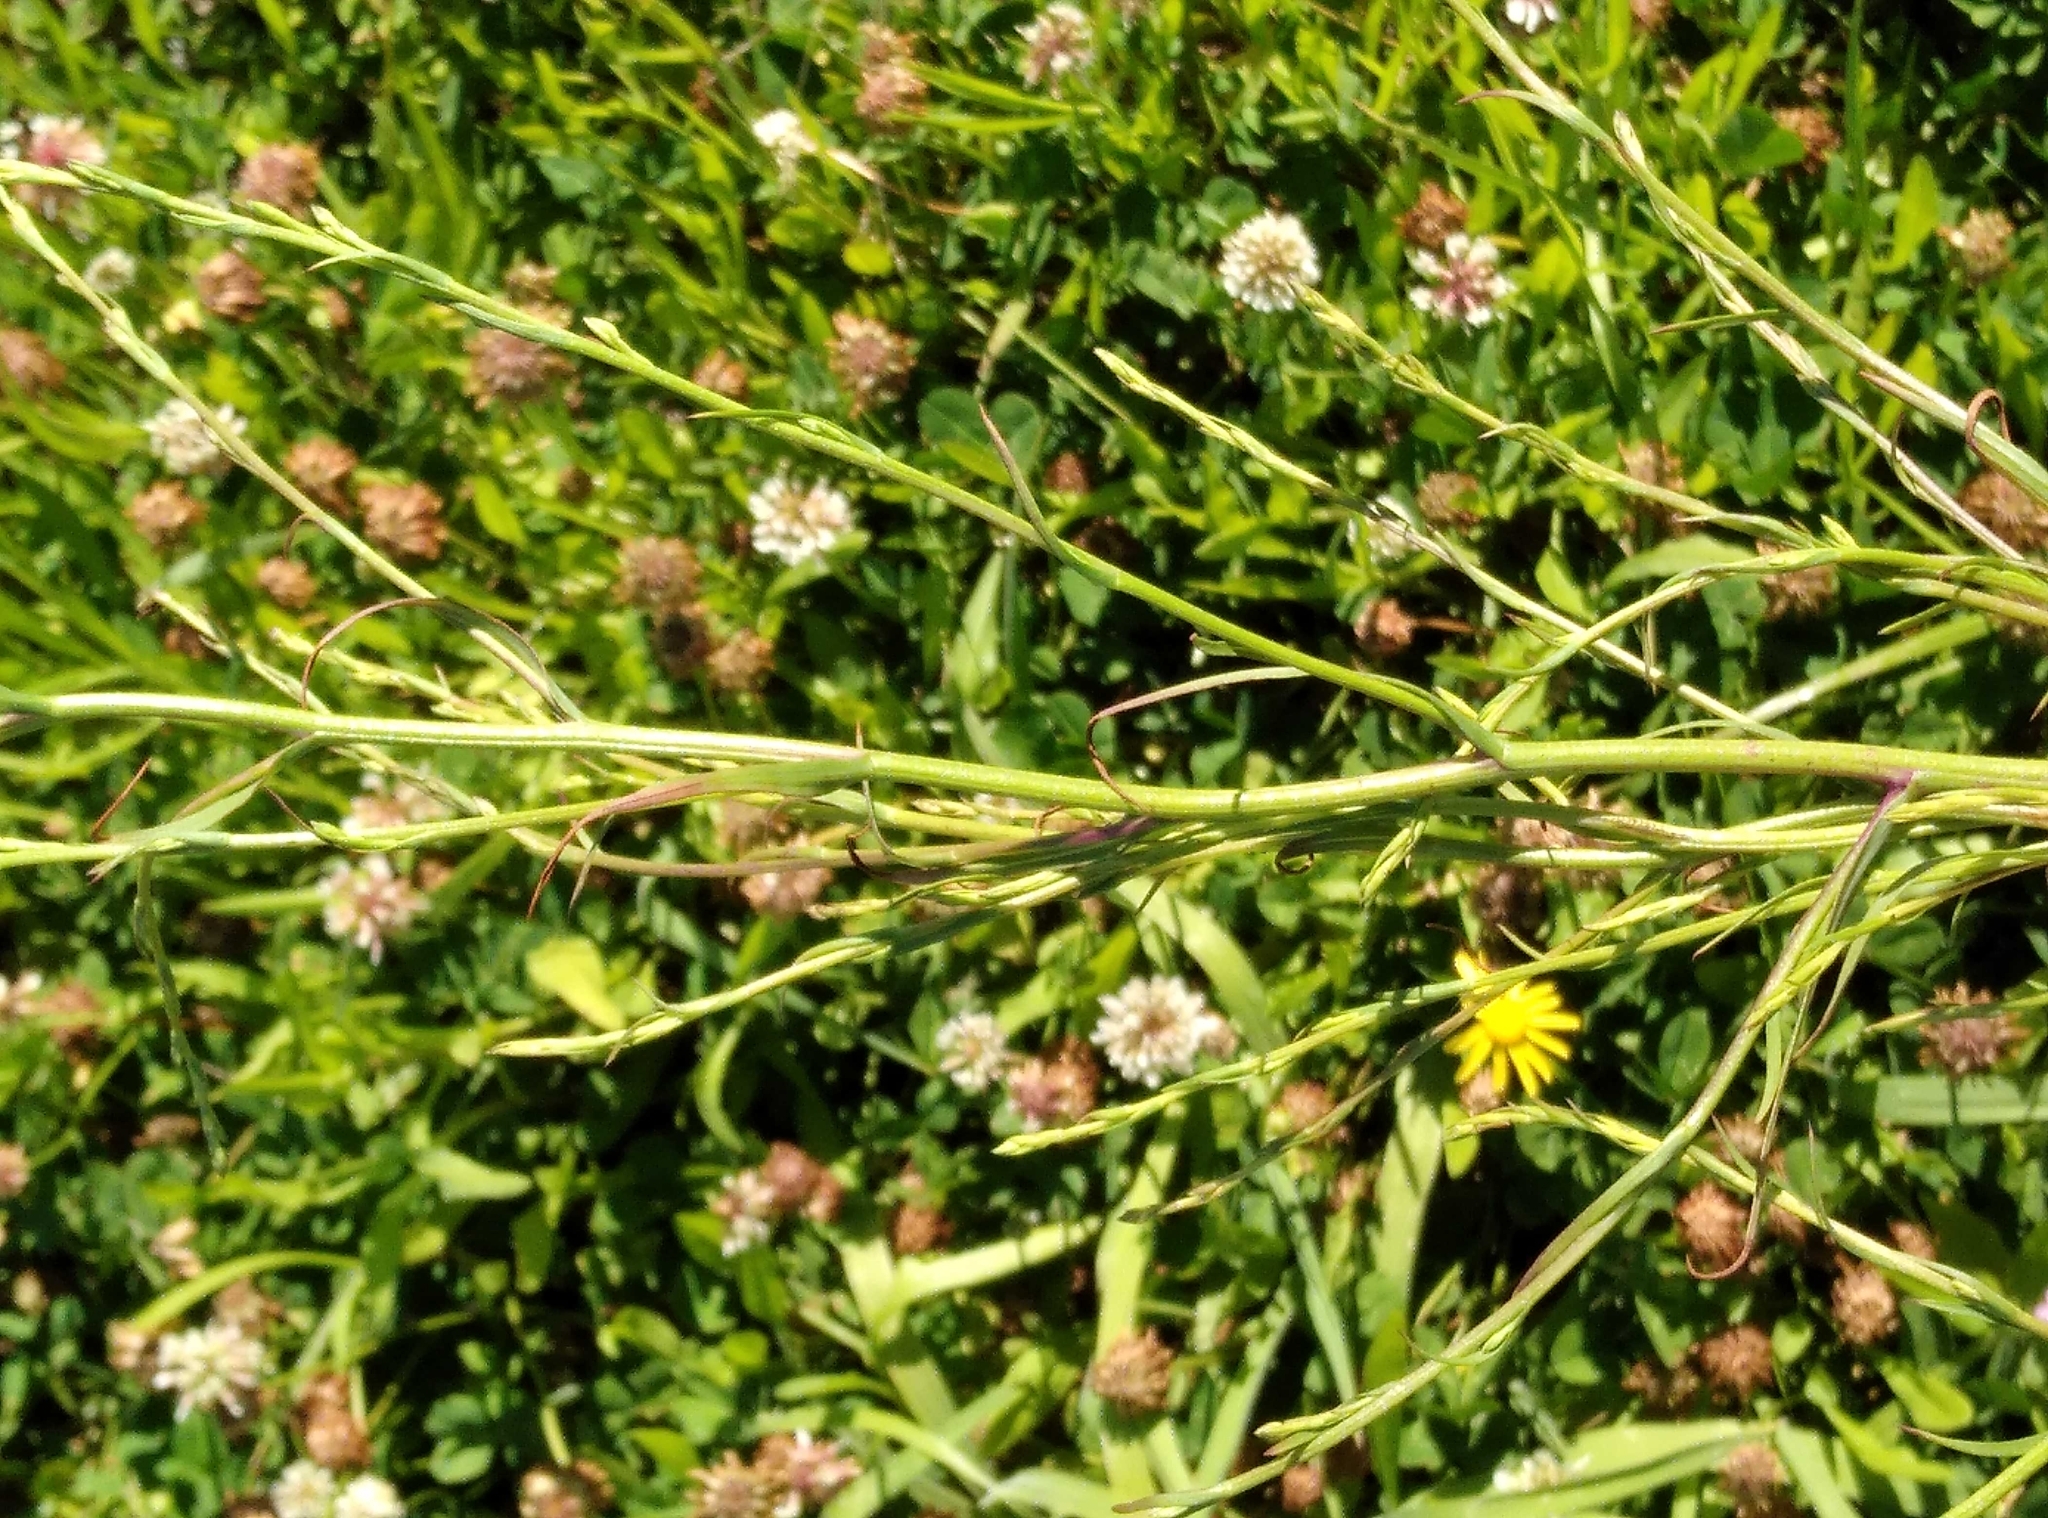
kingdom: Plantae
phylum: Tracheophyta
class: Magnoliopsida
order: Asterales
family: Asteraceae
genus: Symphyotrichum
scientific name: Symphyotrichum subulatum
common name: Annual saltmarsh aster
